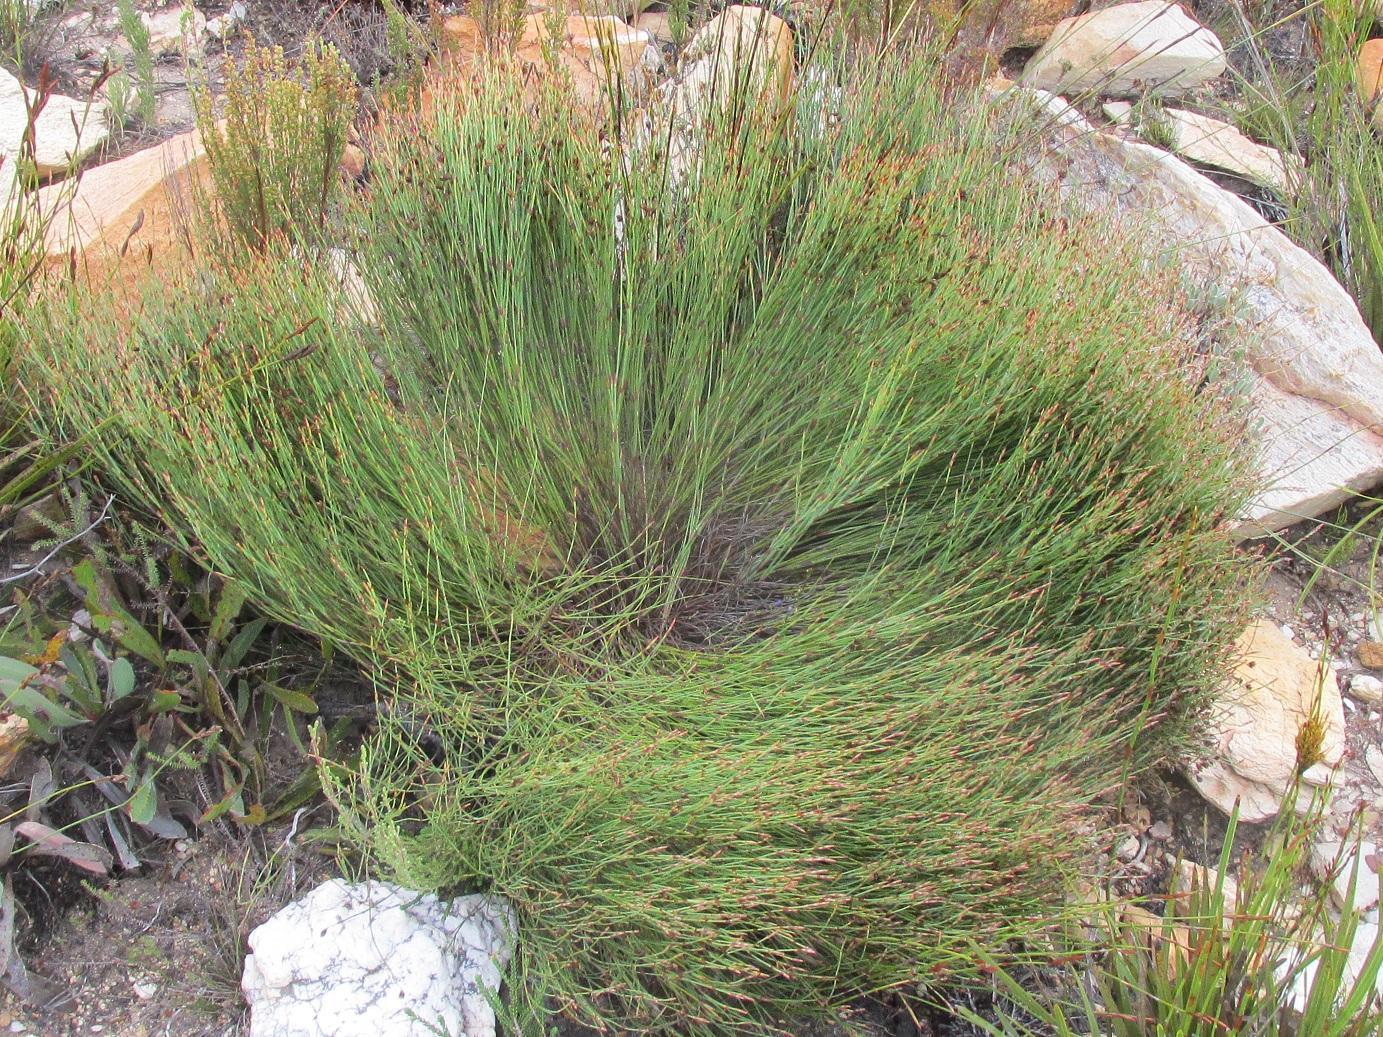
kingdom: Plantae
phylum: Tracheophyta
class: Liliopsida
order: Poales
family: Restionaceae
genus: Mastersiella
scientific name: Mastersiella spathulata
